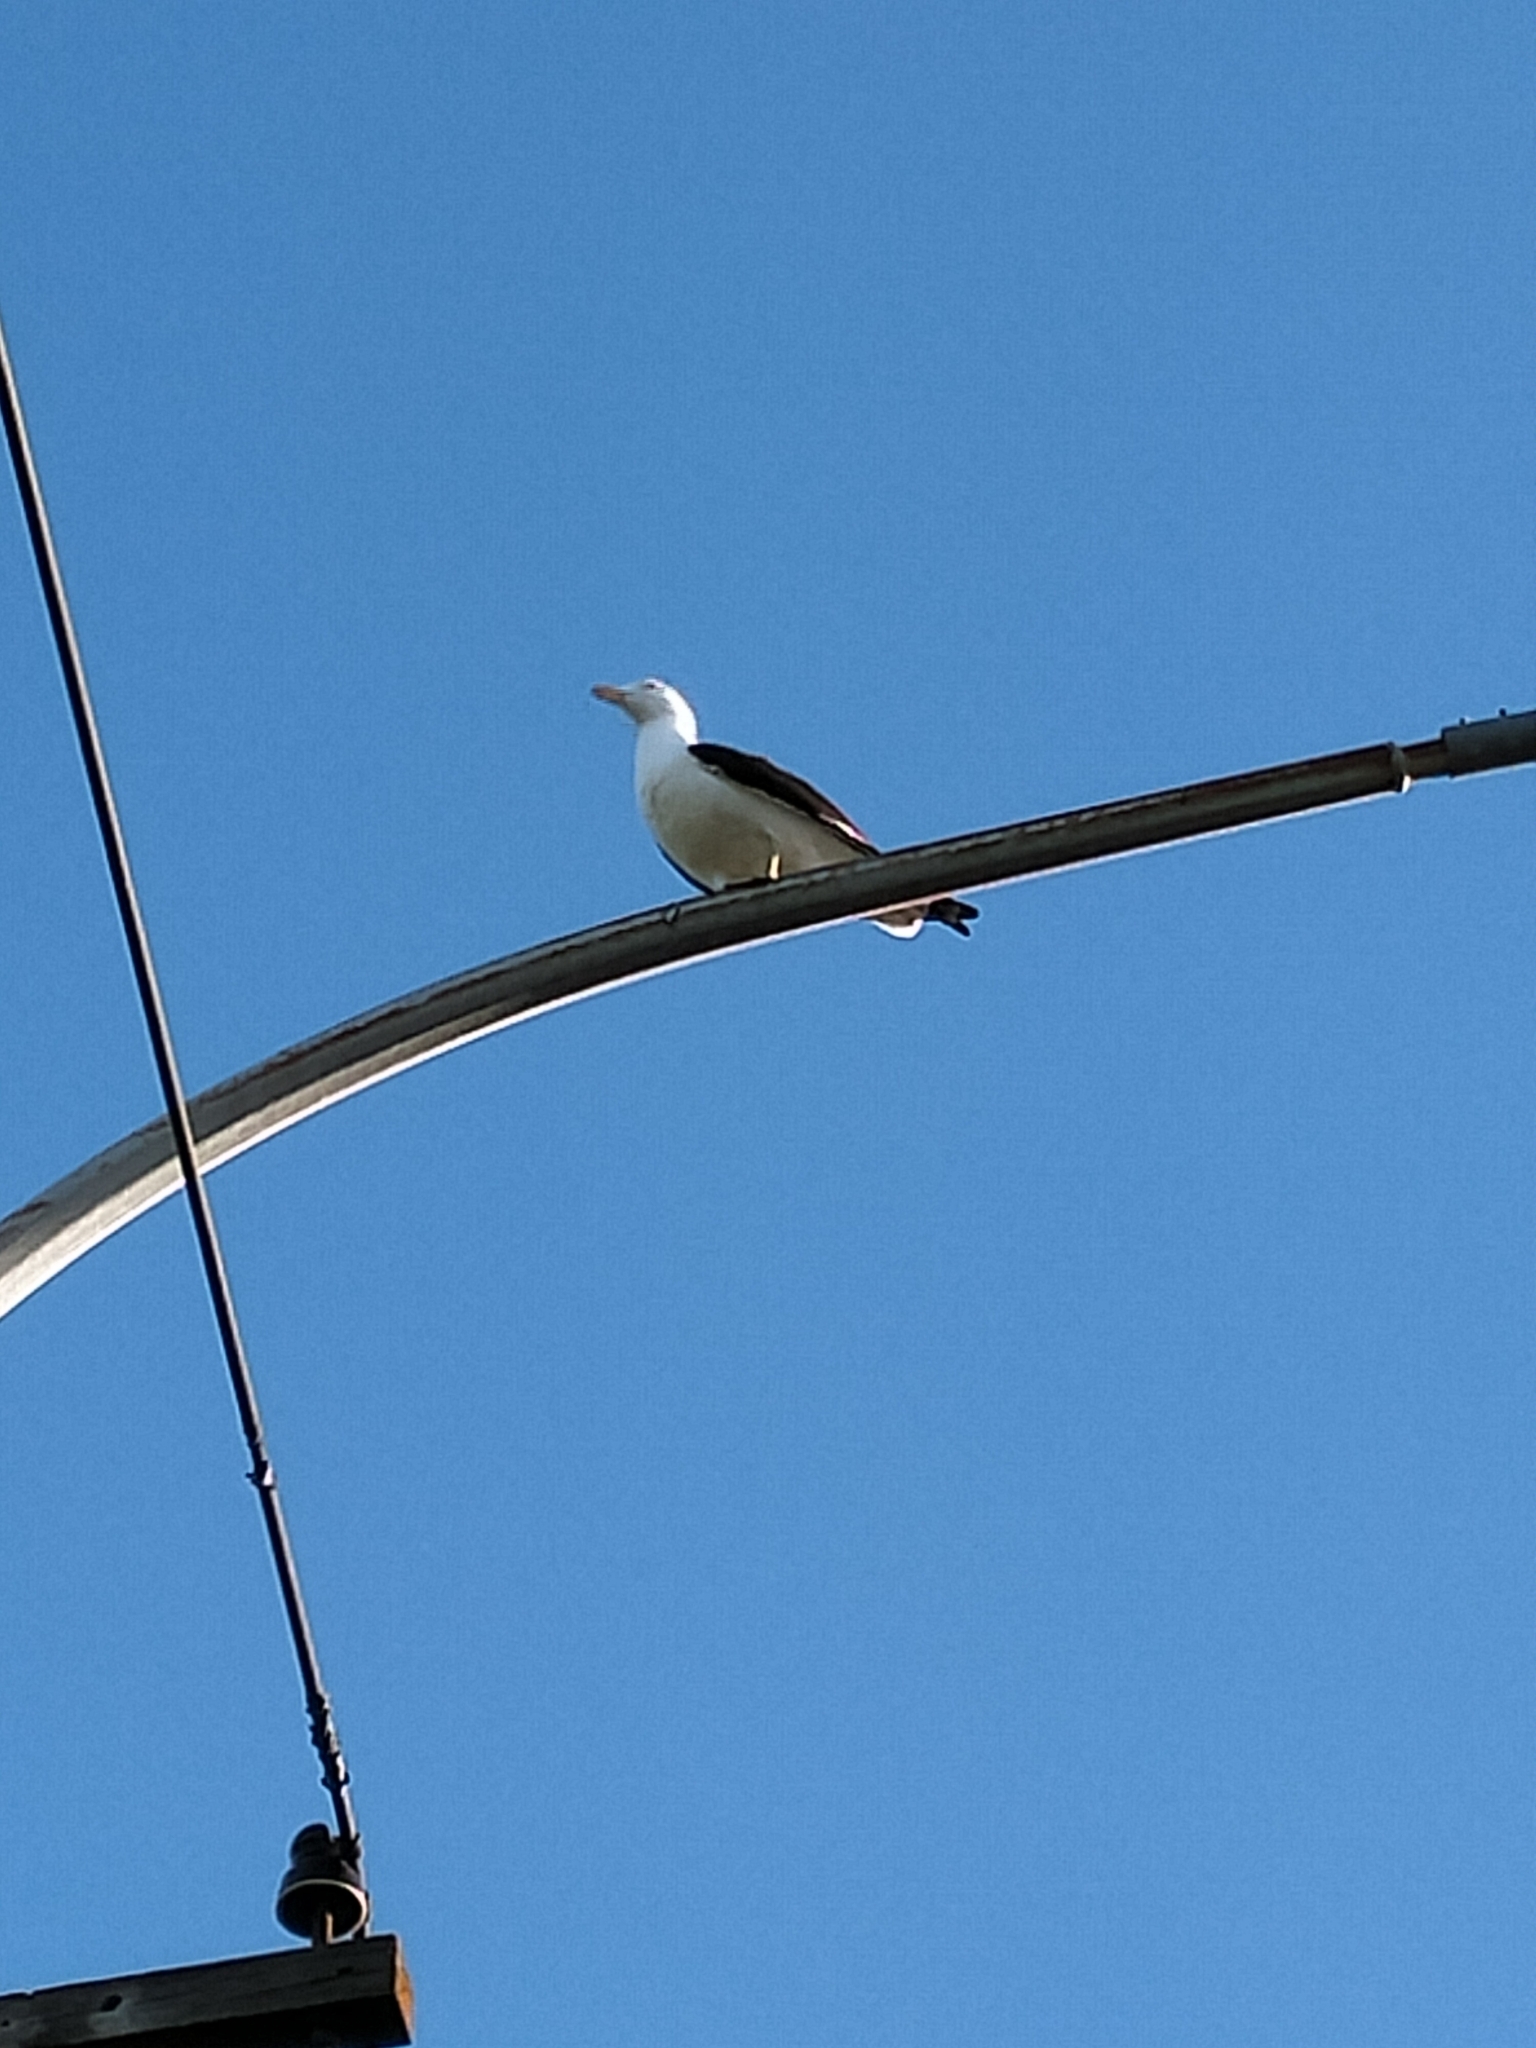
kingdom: Animalia
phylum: Chordata
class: Aves
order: Charadriiformes
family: Laridae
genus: Larus
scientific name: Larus dominicanus
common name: Kelp gull
